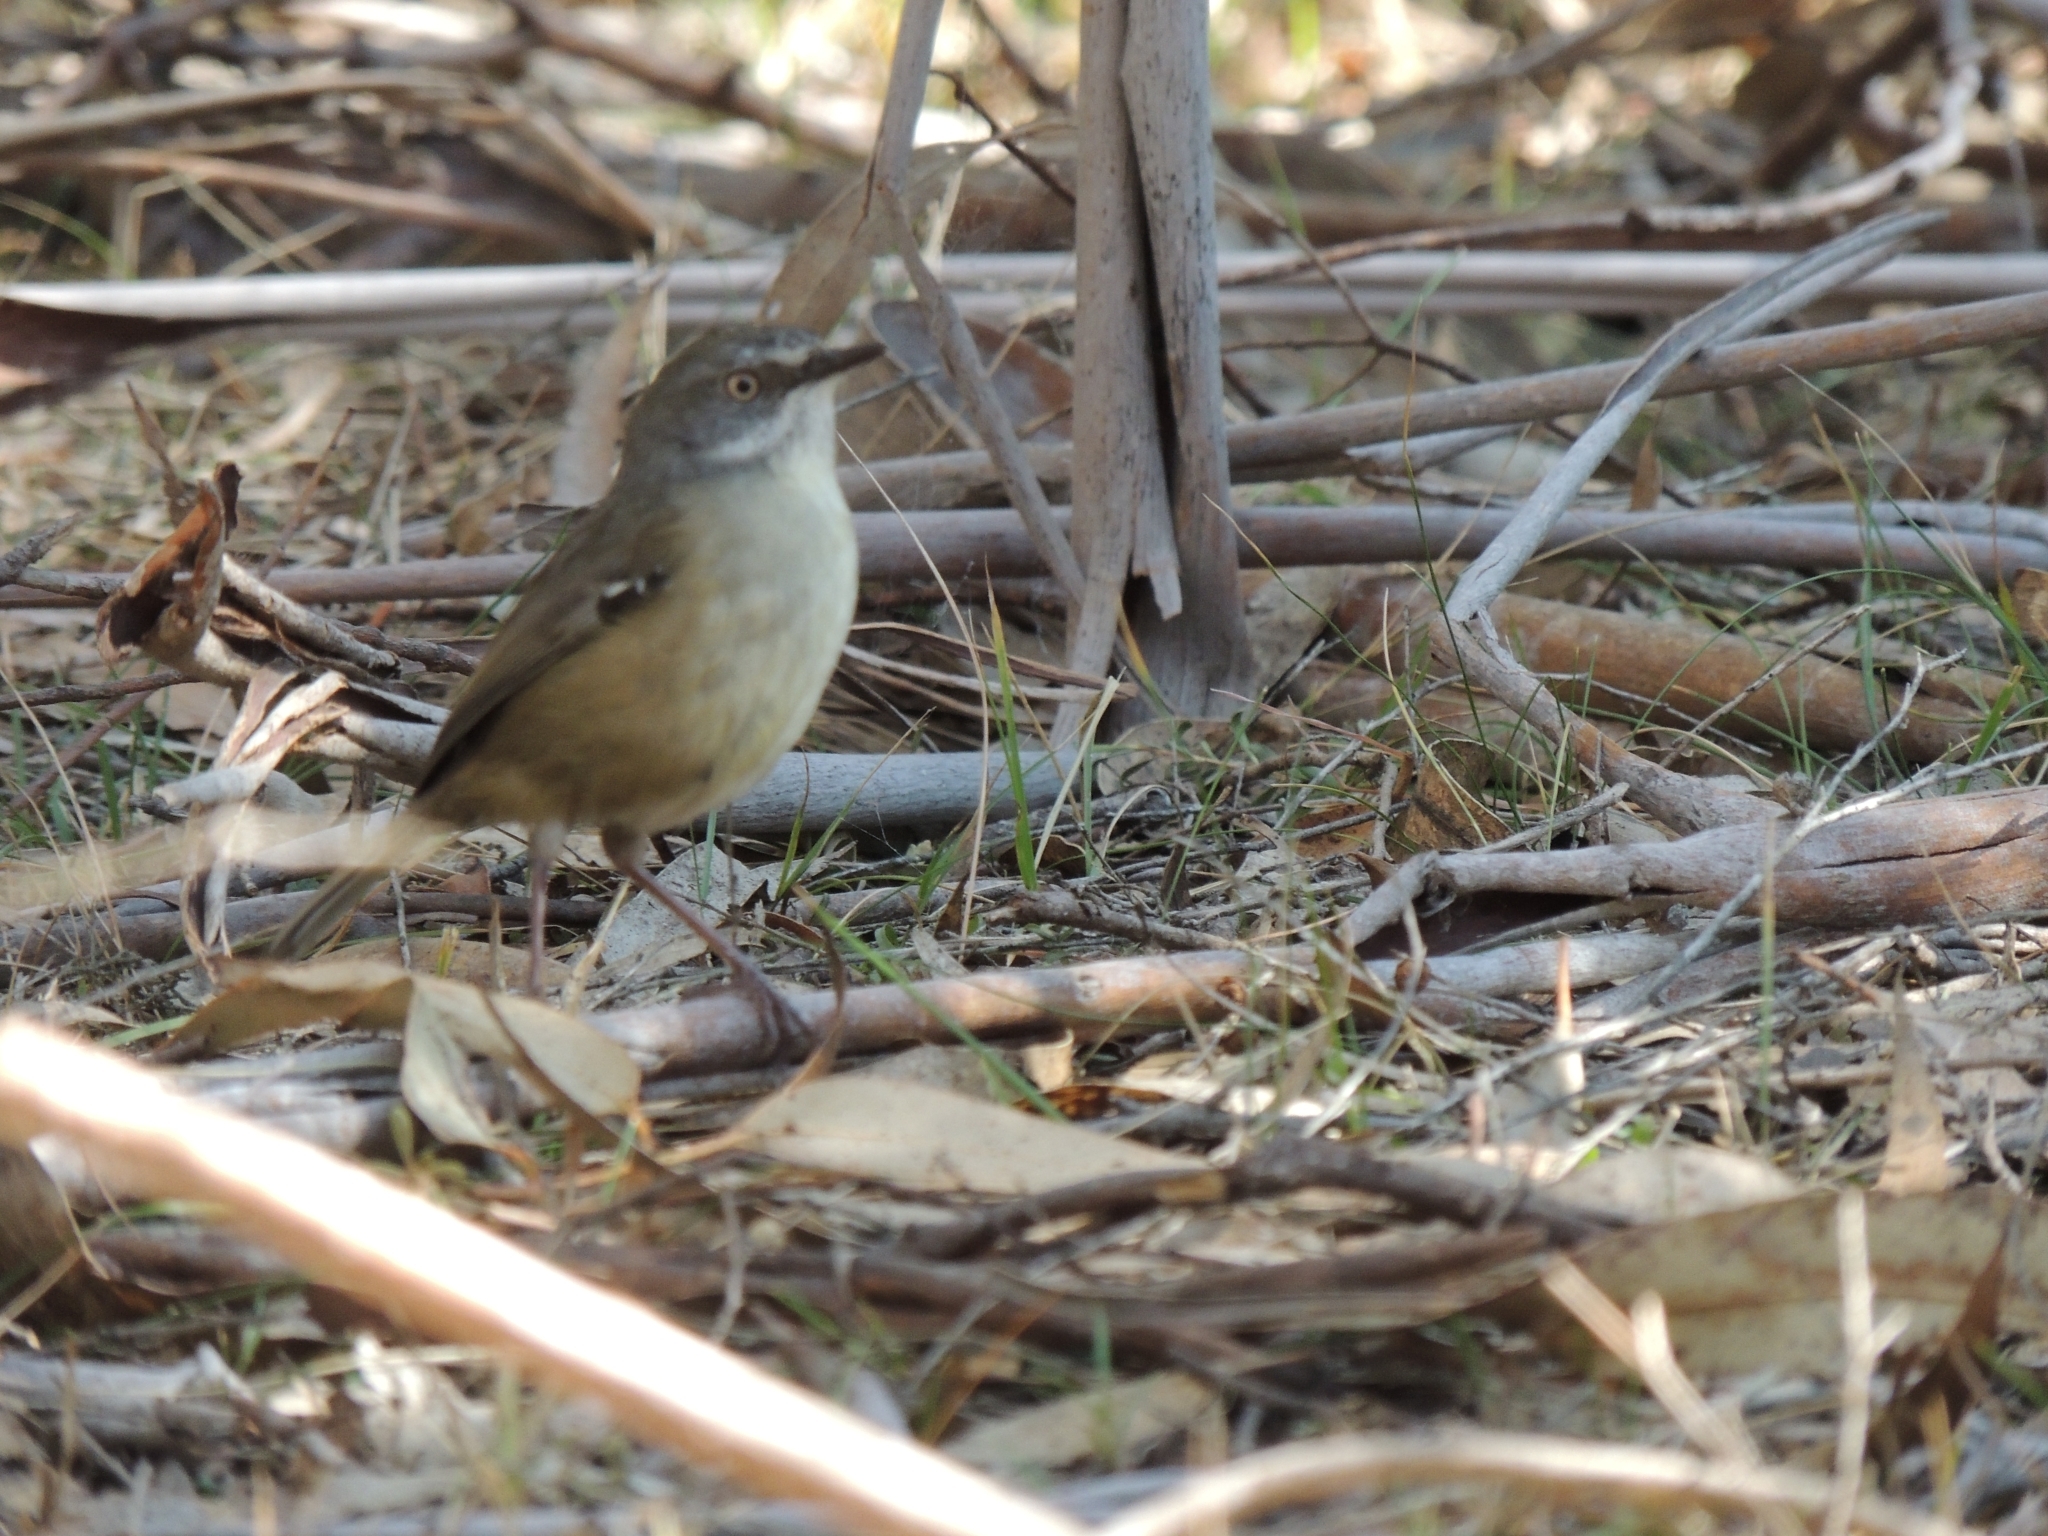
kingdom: Animalia
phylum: Chordata
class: Aves
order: Passeriformes
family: Acanthizidae
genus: Sericornis
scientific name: Sericornis frontalis
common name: White-browed scrubwren
